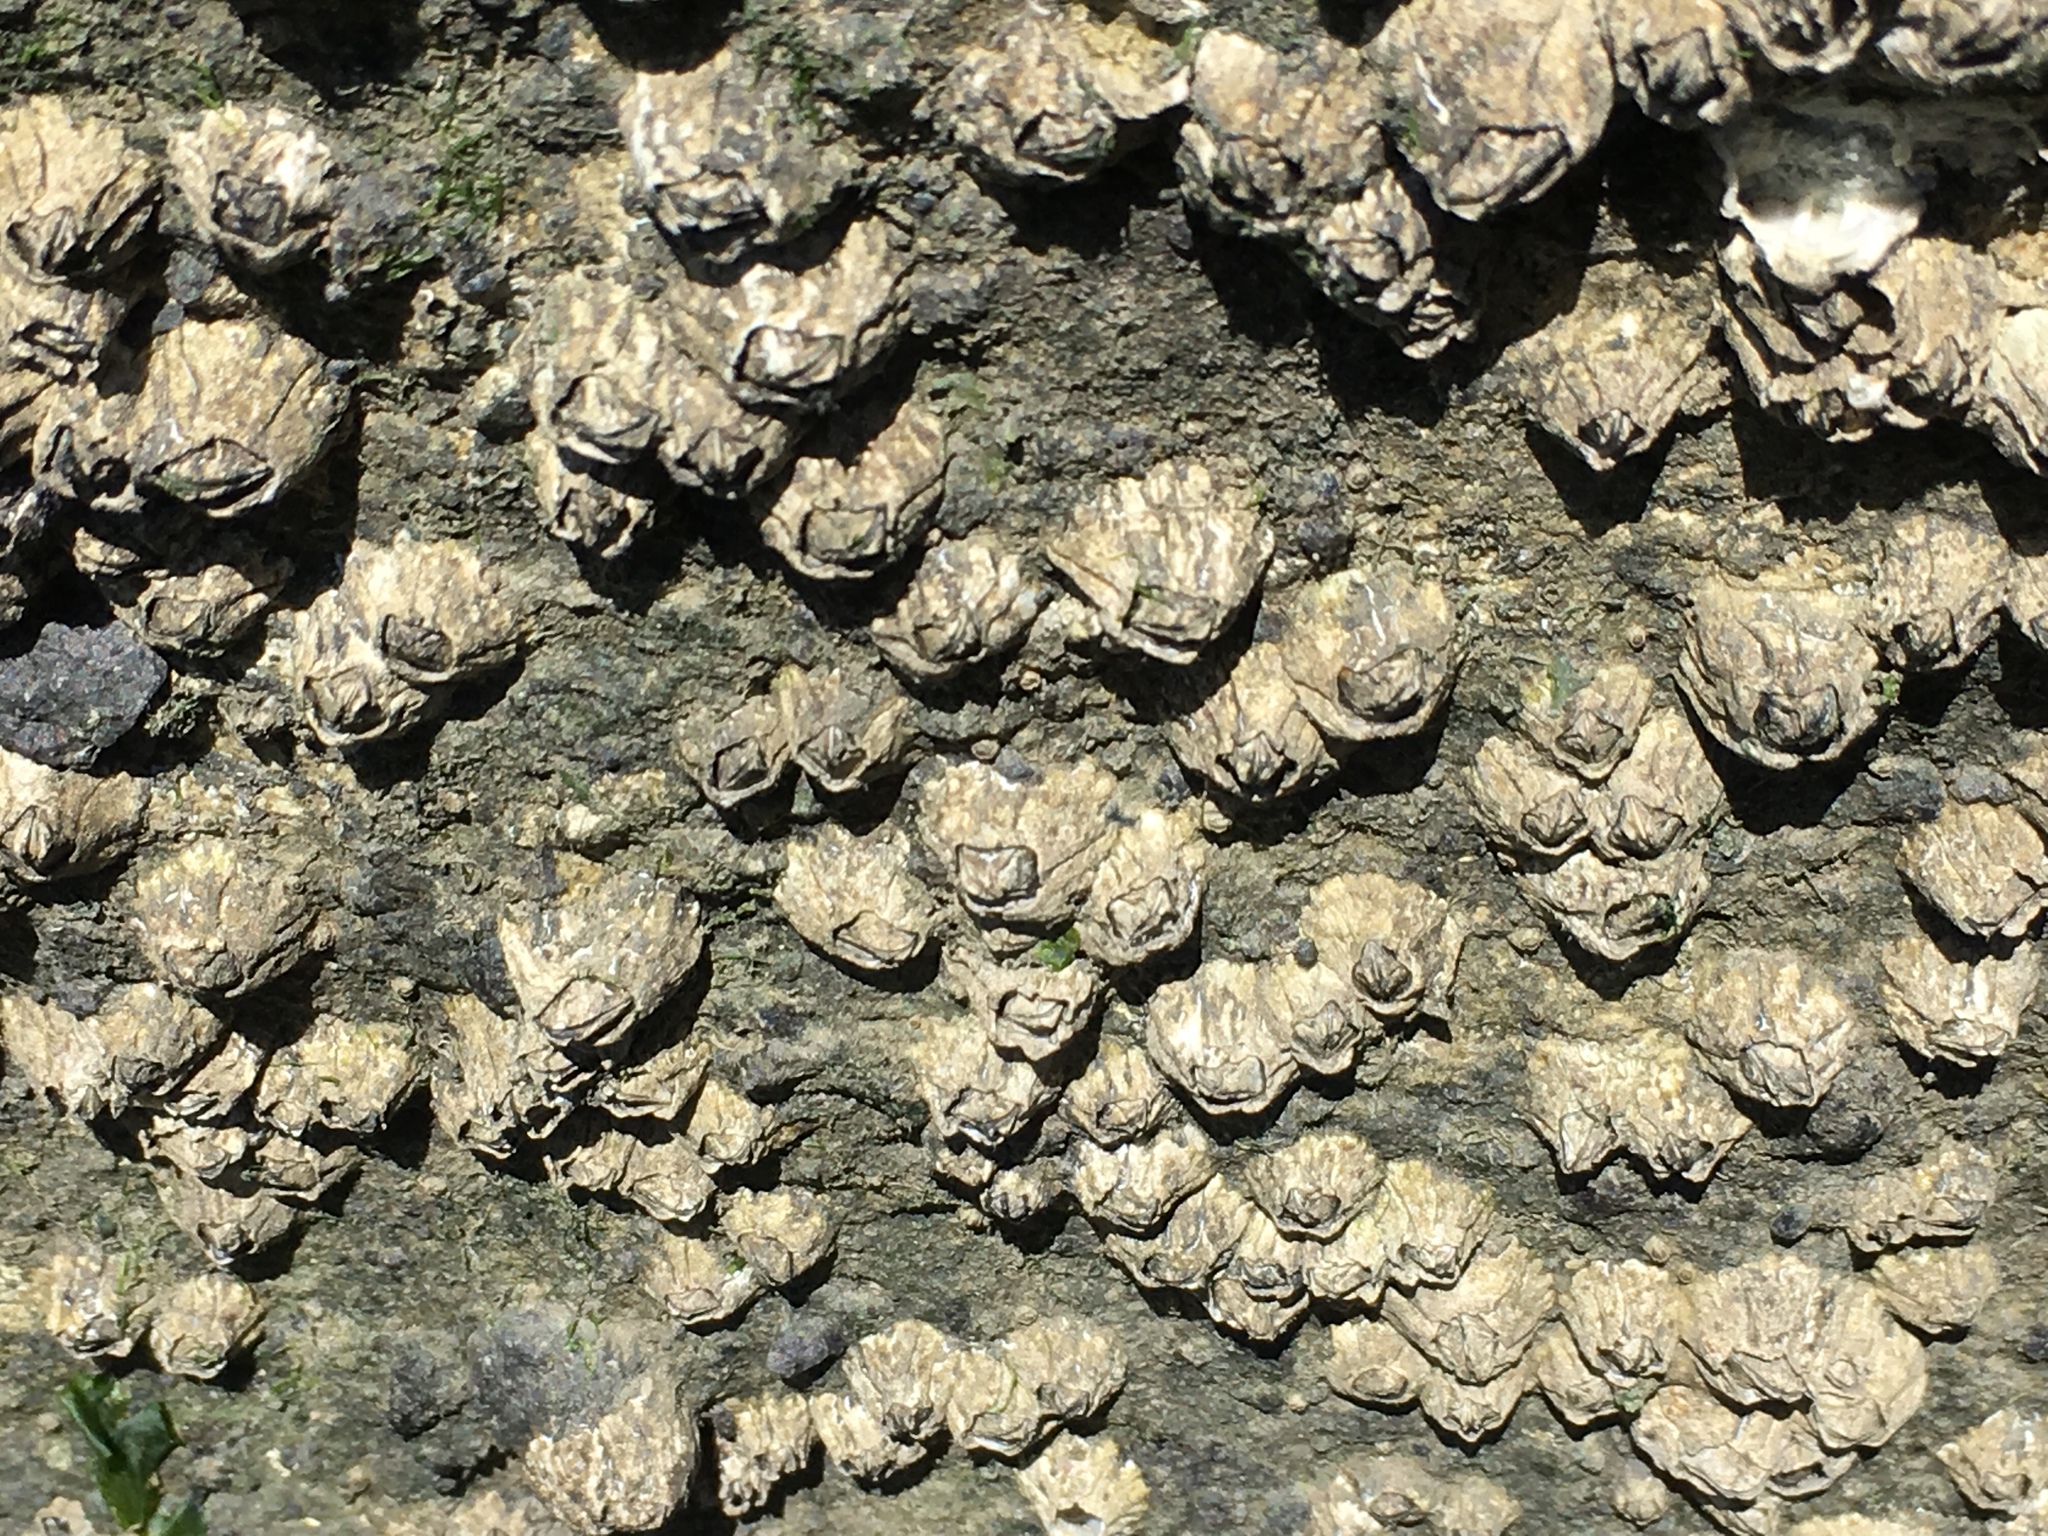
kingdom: Animalia
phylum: Arthropoda
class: Maxillopoda
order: Sessilia
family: Balanidae
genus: Balanus
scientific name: Balanus glandula
